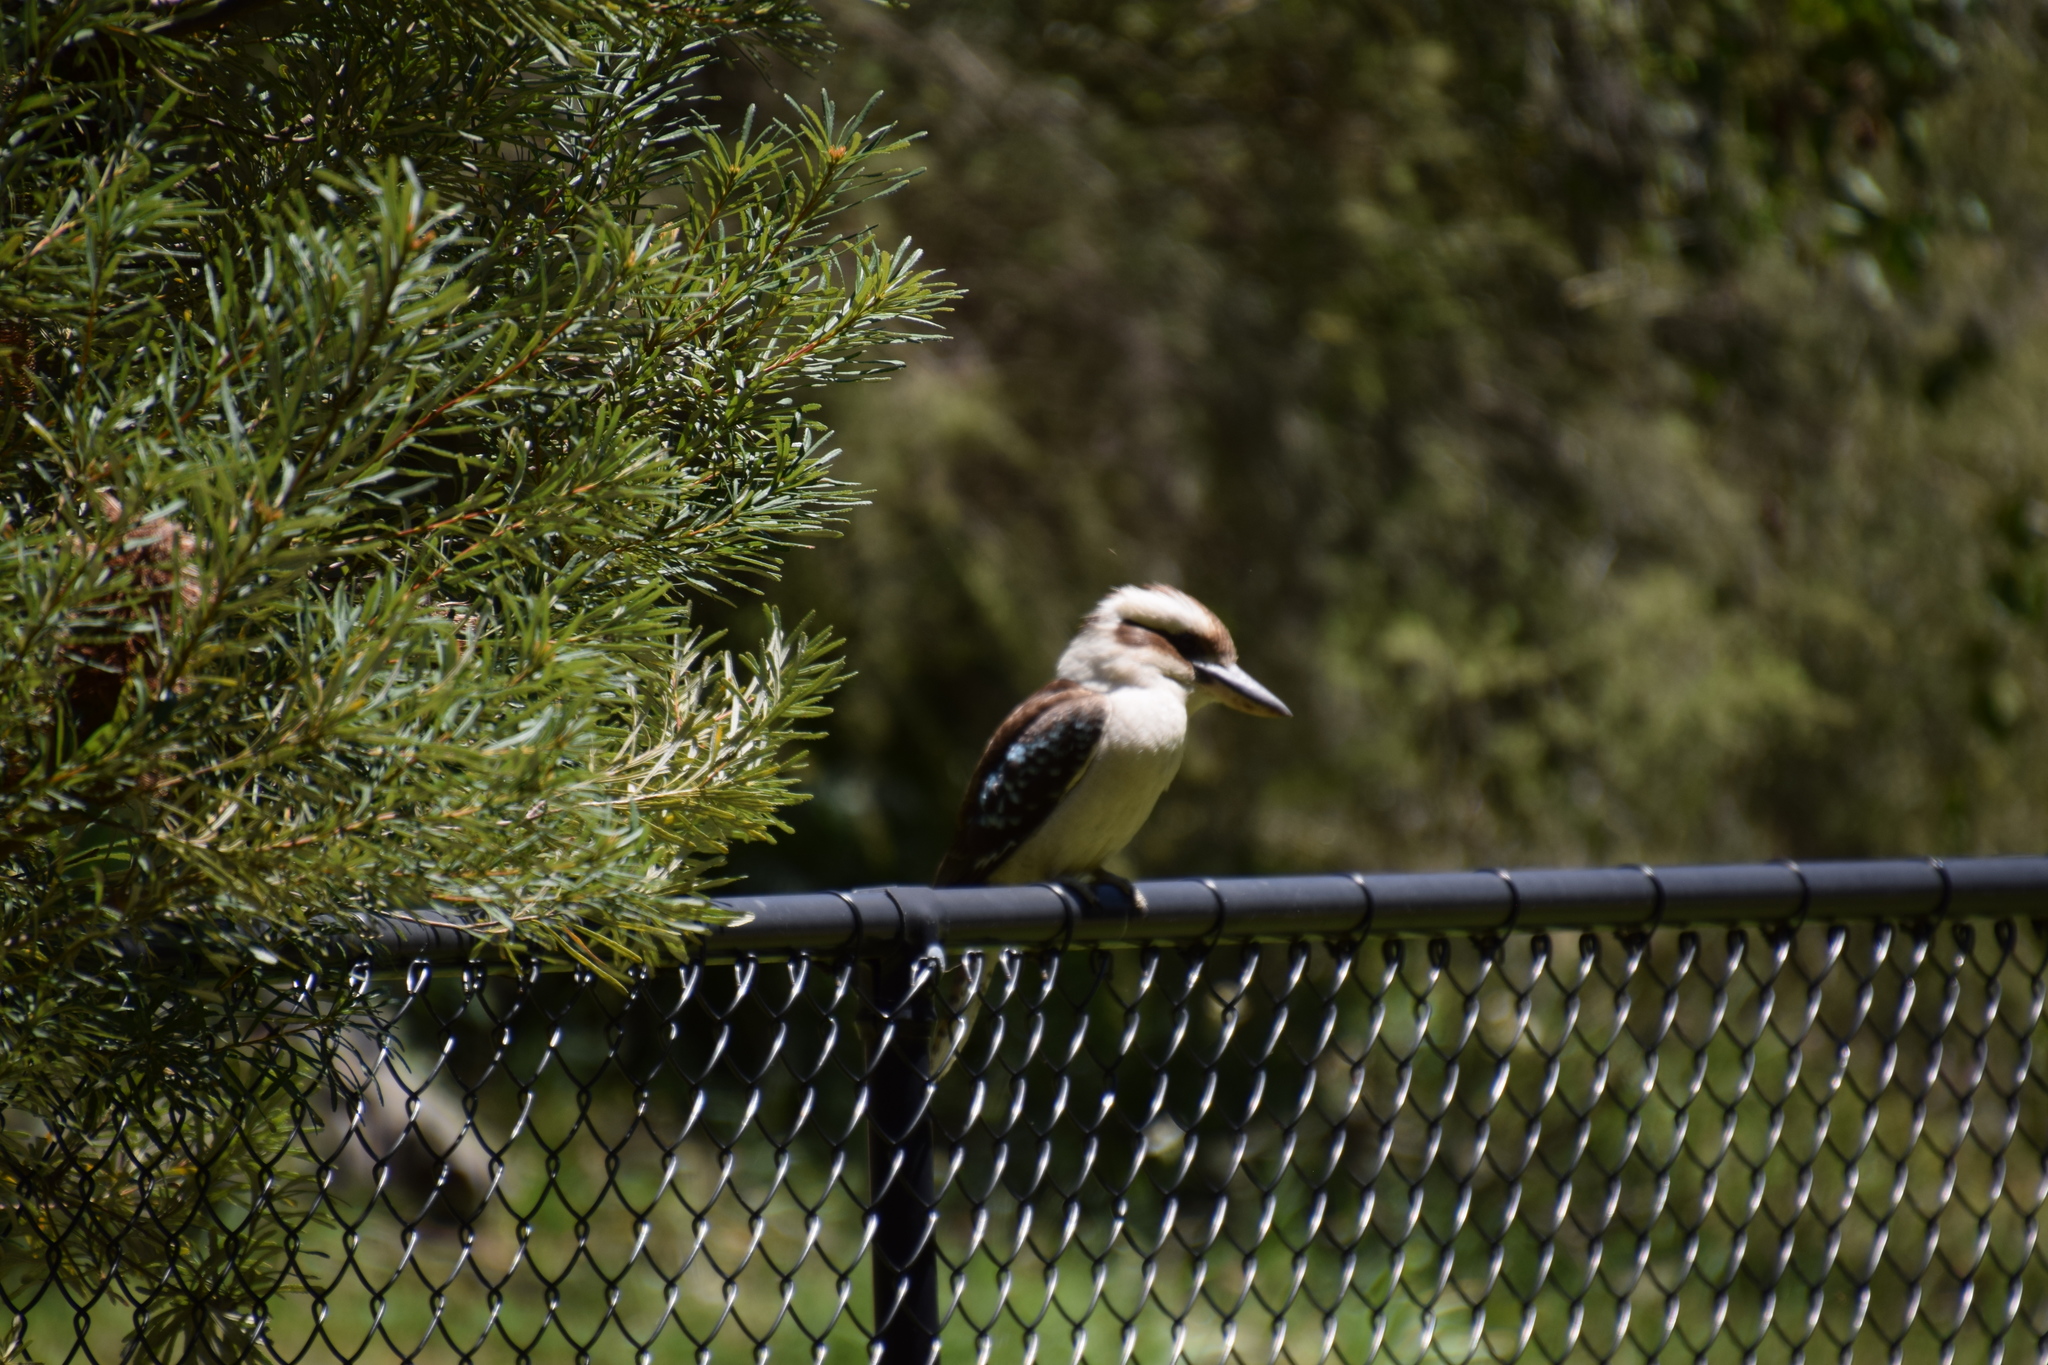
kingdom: Animalia
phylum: Chordata
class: Aves
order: Coraciiformes
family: Alcedinidae
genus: Dacelo
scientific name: Dacelo novaeguineae
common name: Laughing kookaburra
